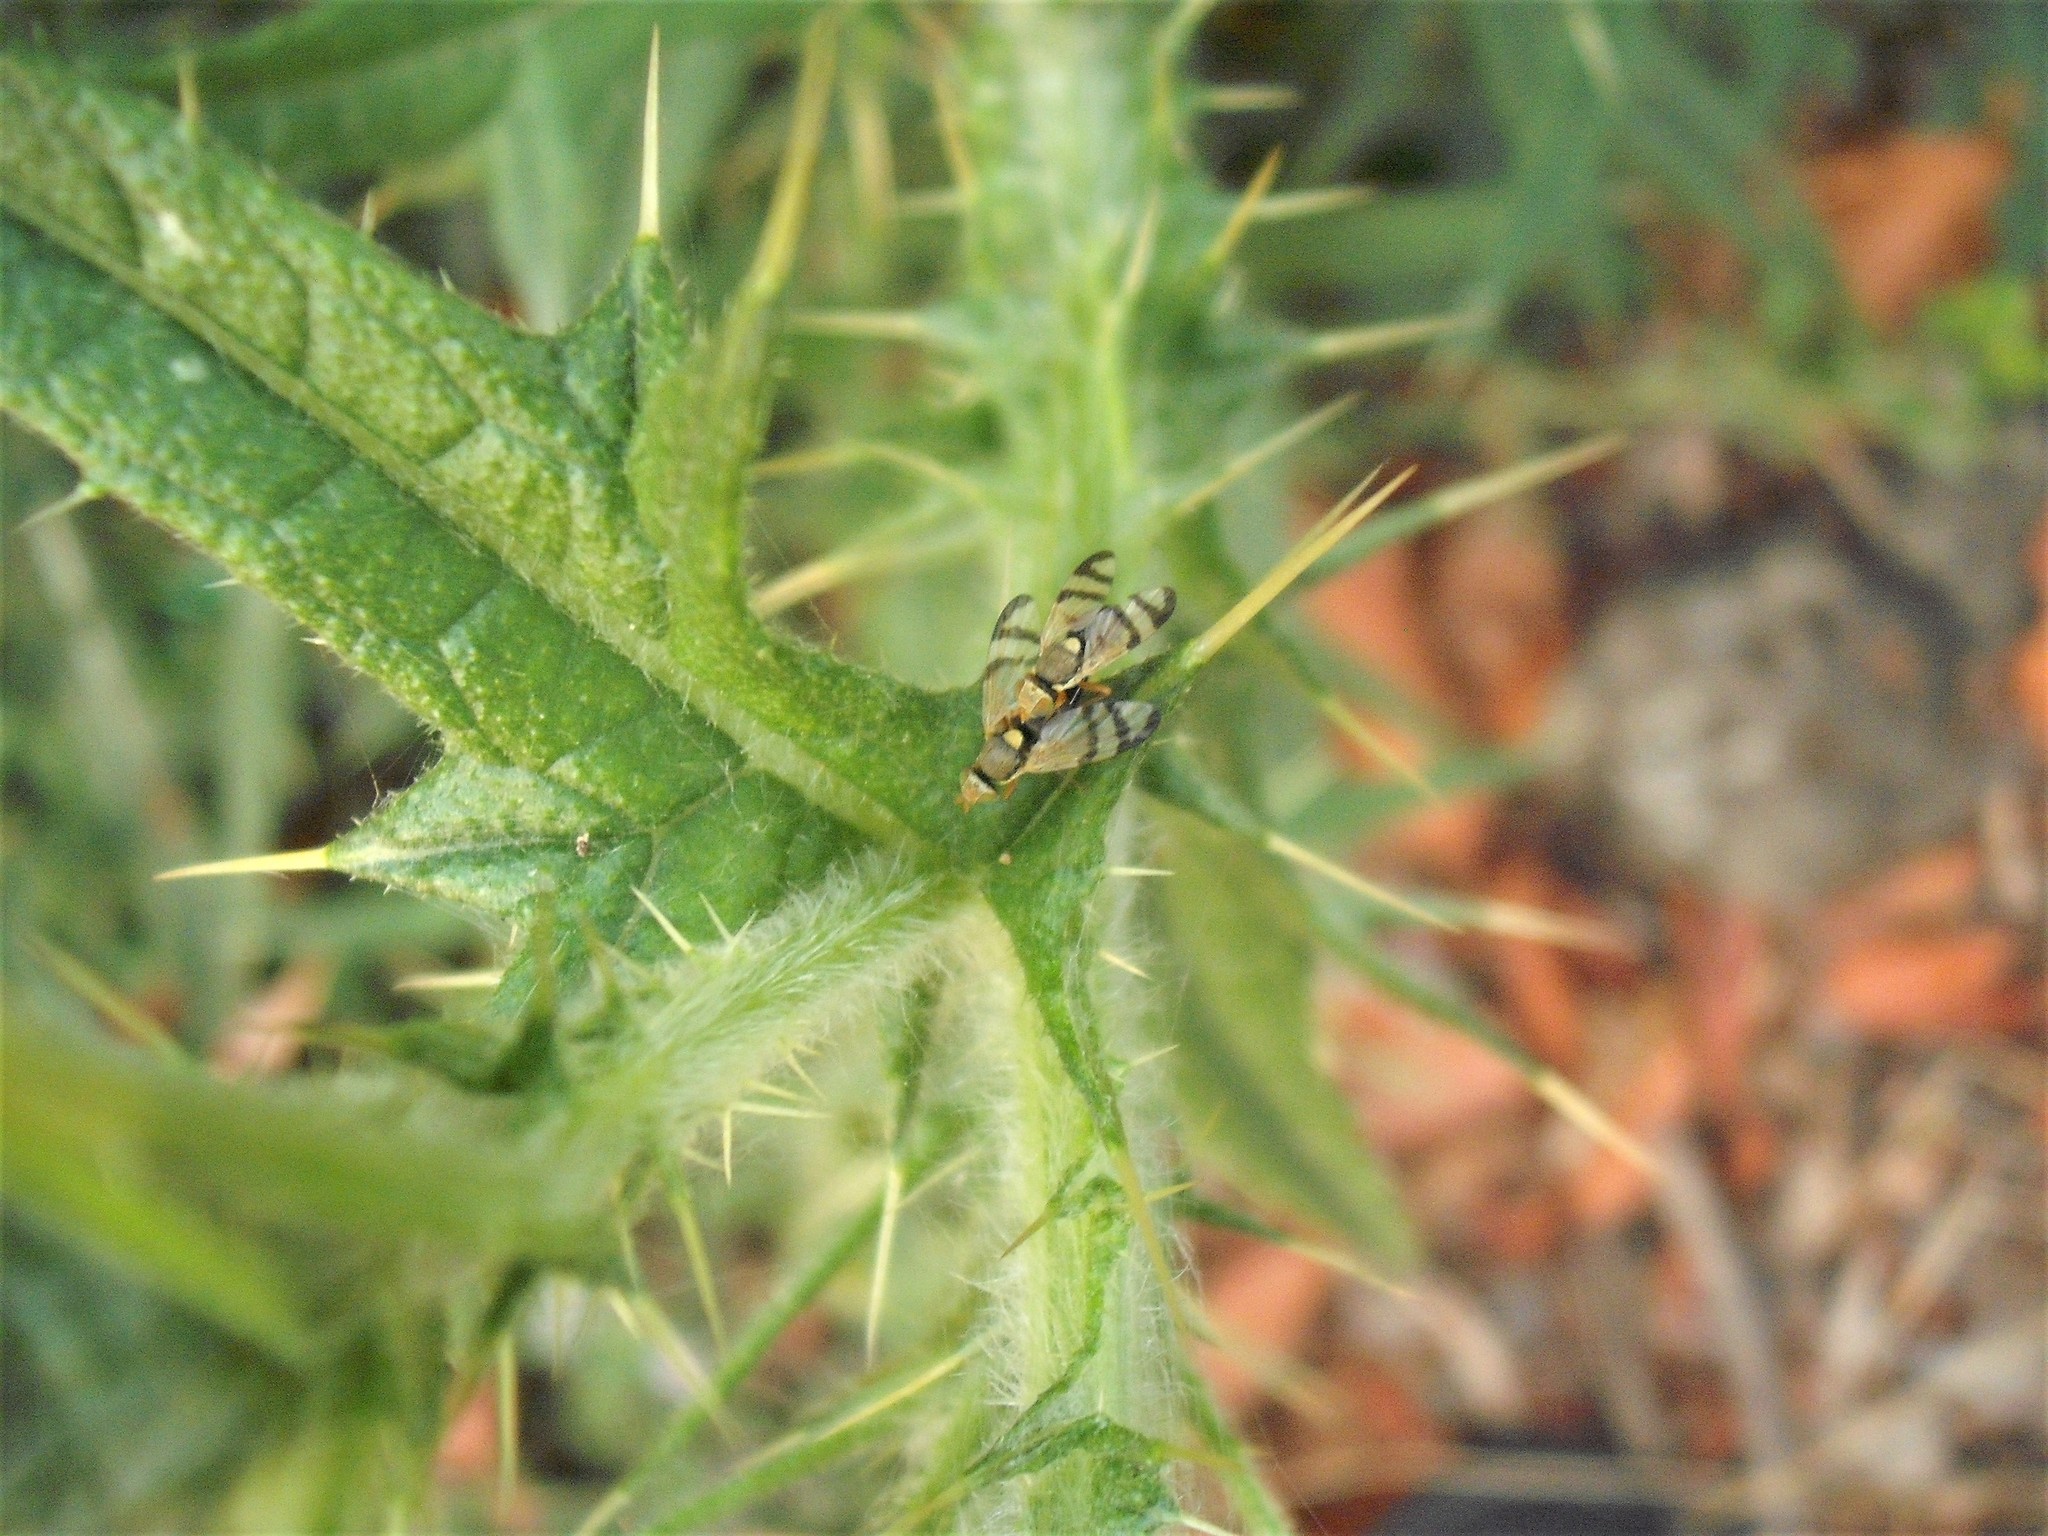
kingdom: Animalia
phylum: Arthropoda
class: Insecta
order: Diptera
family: Tephritidae
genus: Urophora
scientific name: Urophora stylata
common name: Fruit fly
